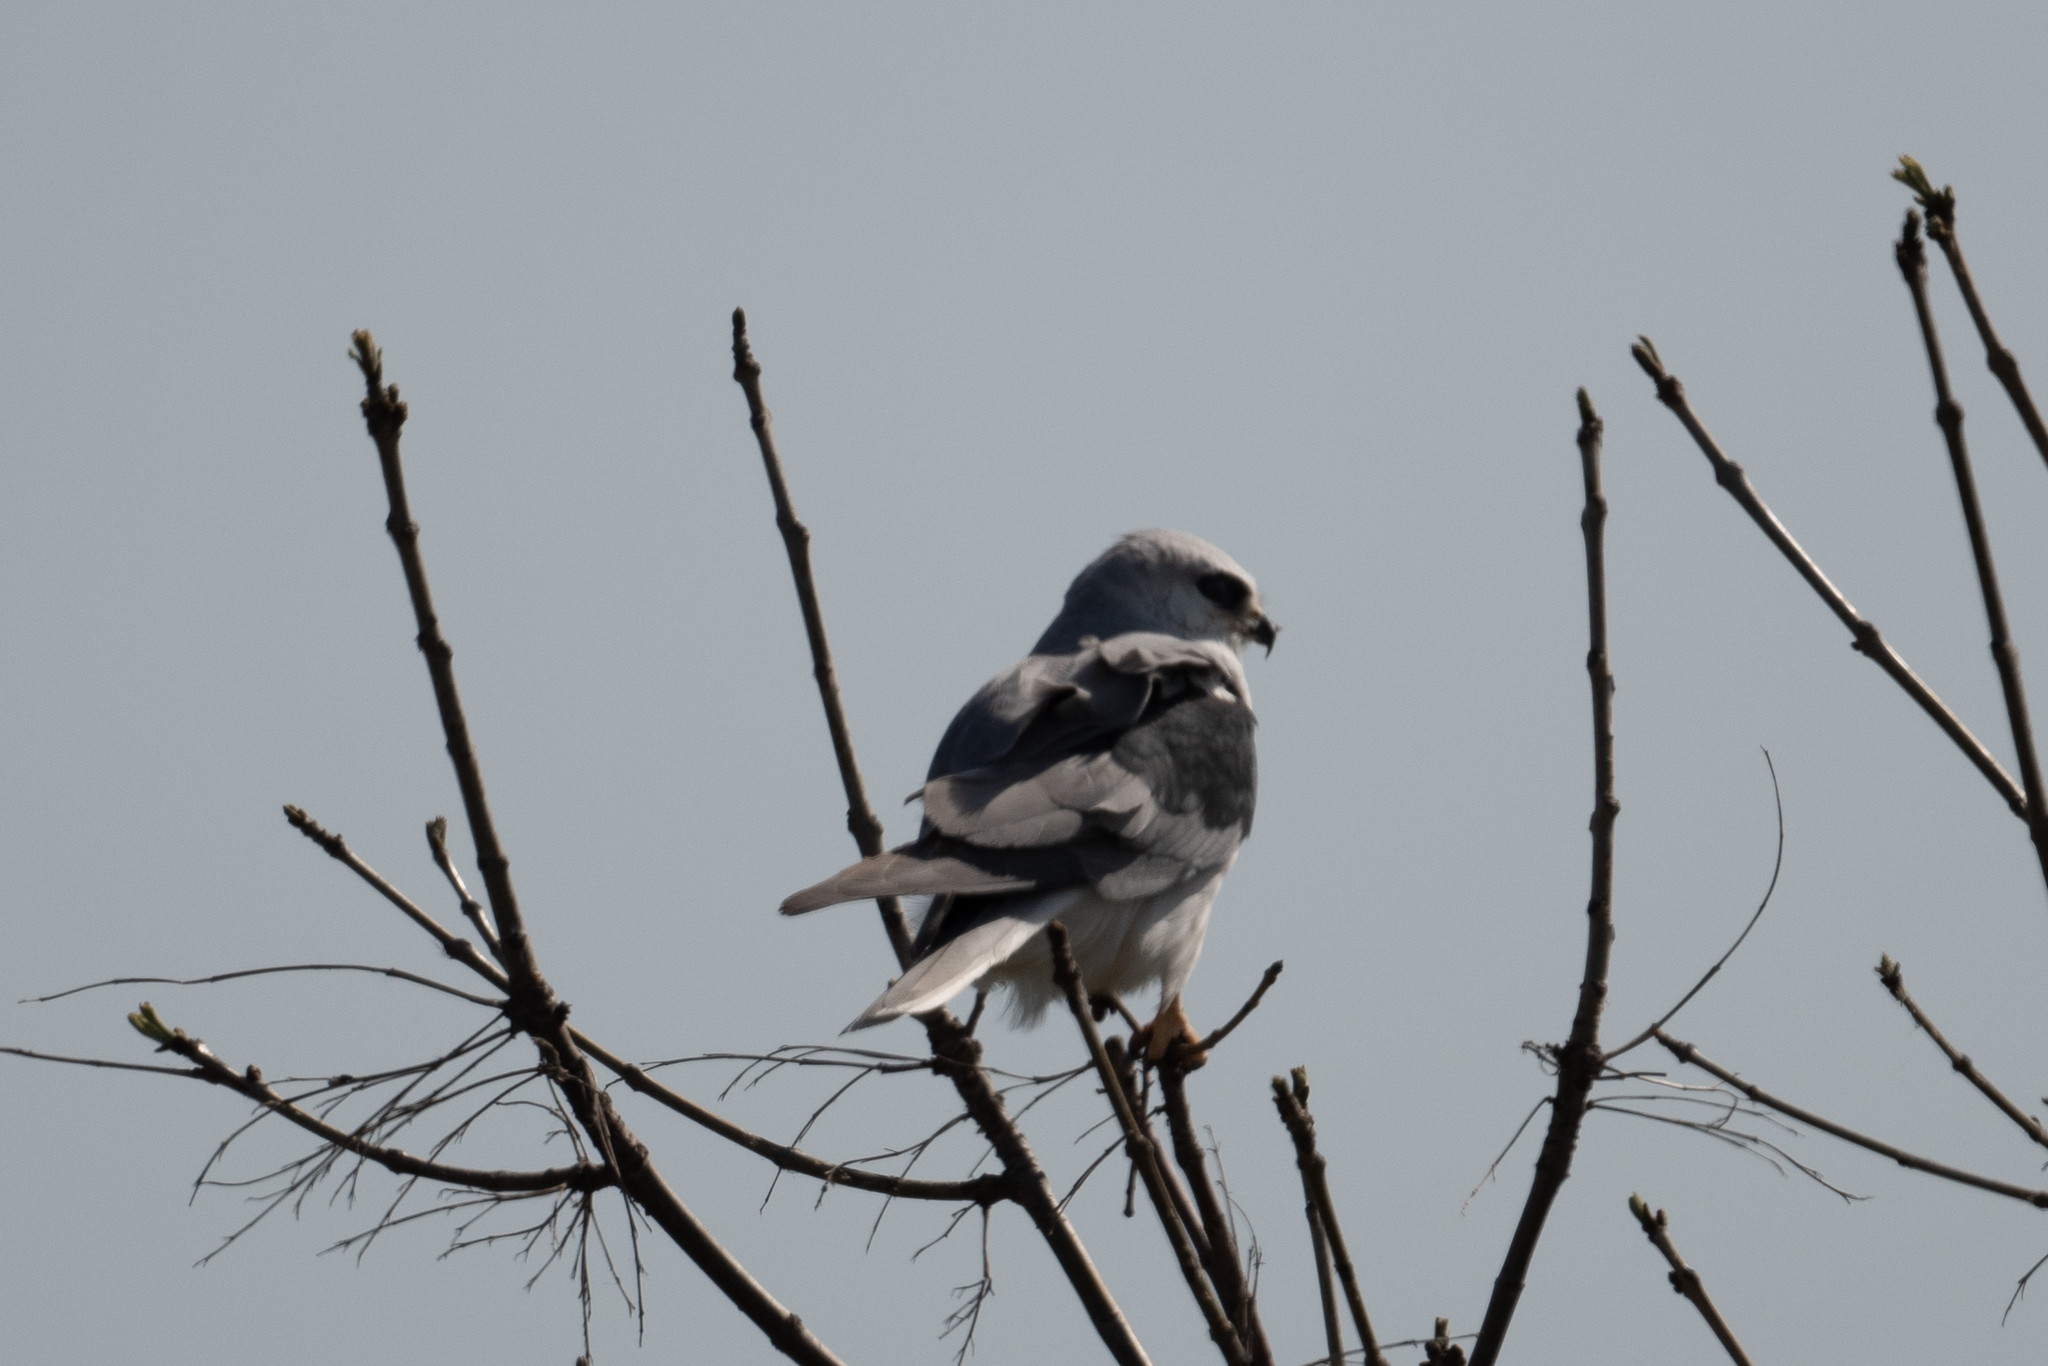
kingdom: Animalia
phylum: Chordata
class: Aves
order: Accipitriformes
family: Accipitridae
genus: Elanus
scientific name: Elanus leucurus
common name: White-tailed kite
